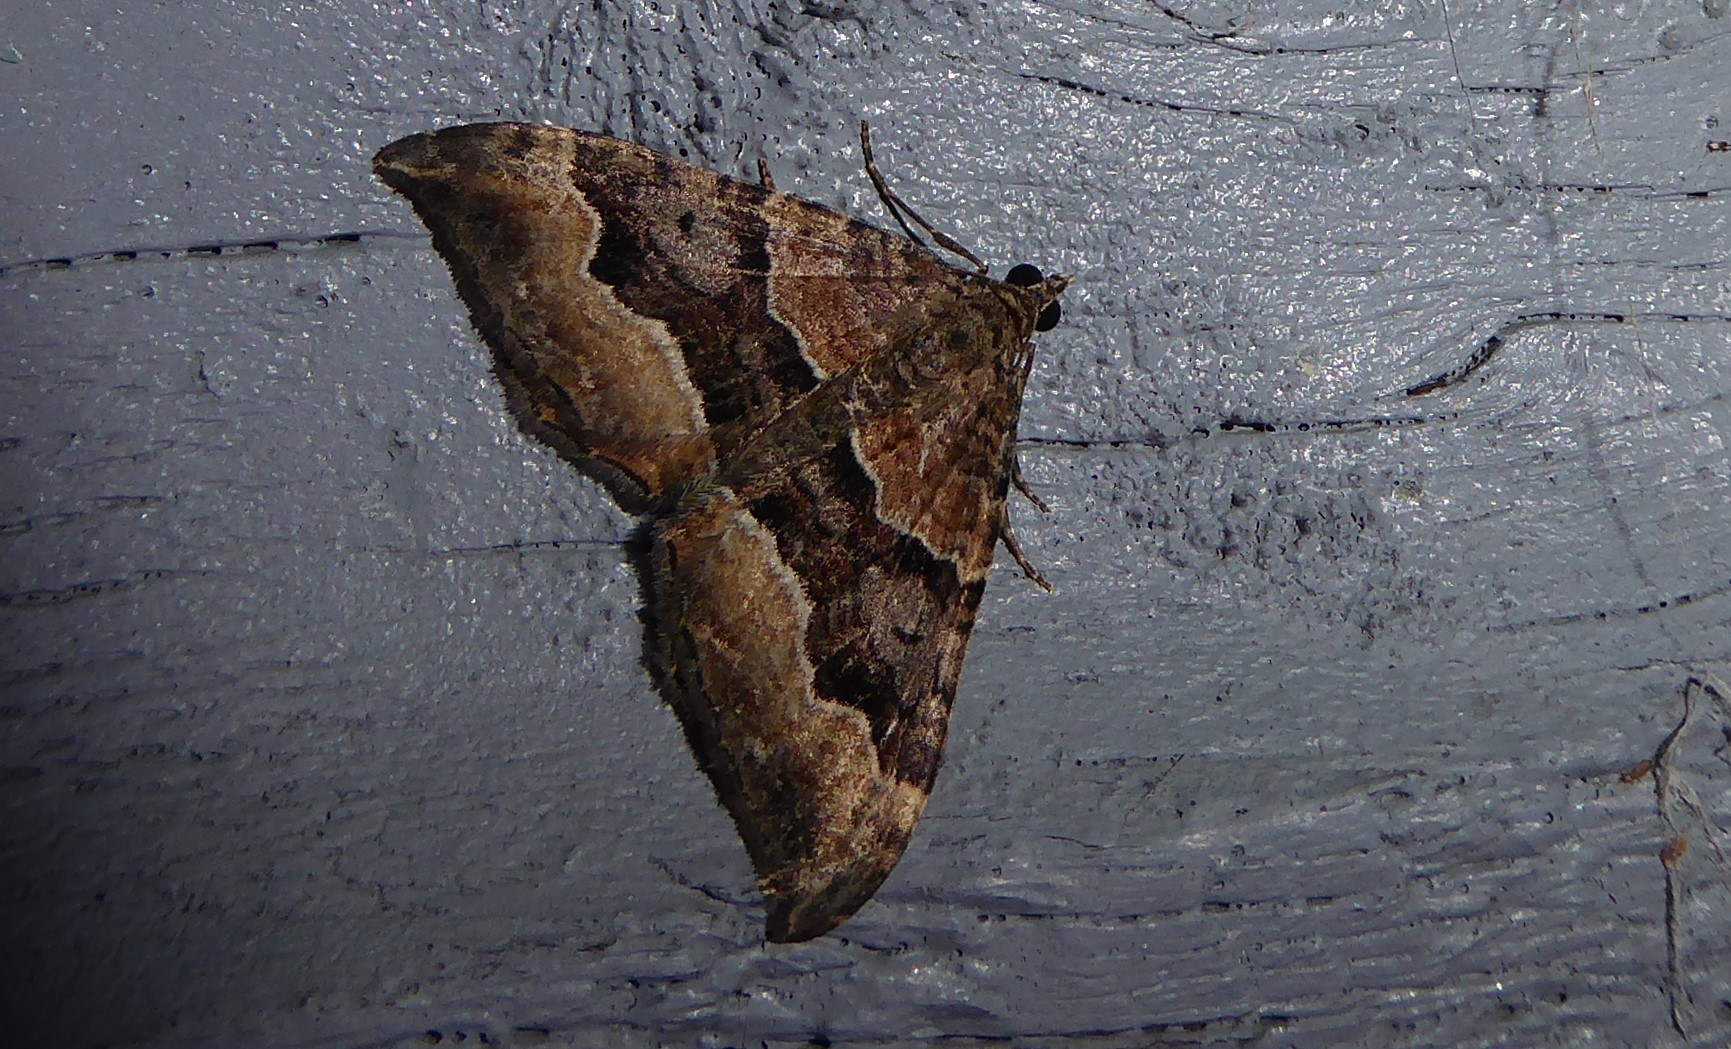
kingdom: Animalia
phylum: Arthropoda
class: Insecta
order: Lepidoptera
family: Geometridae
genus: Hydriomena
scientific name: Hydriomena deltoidata
